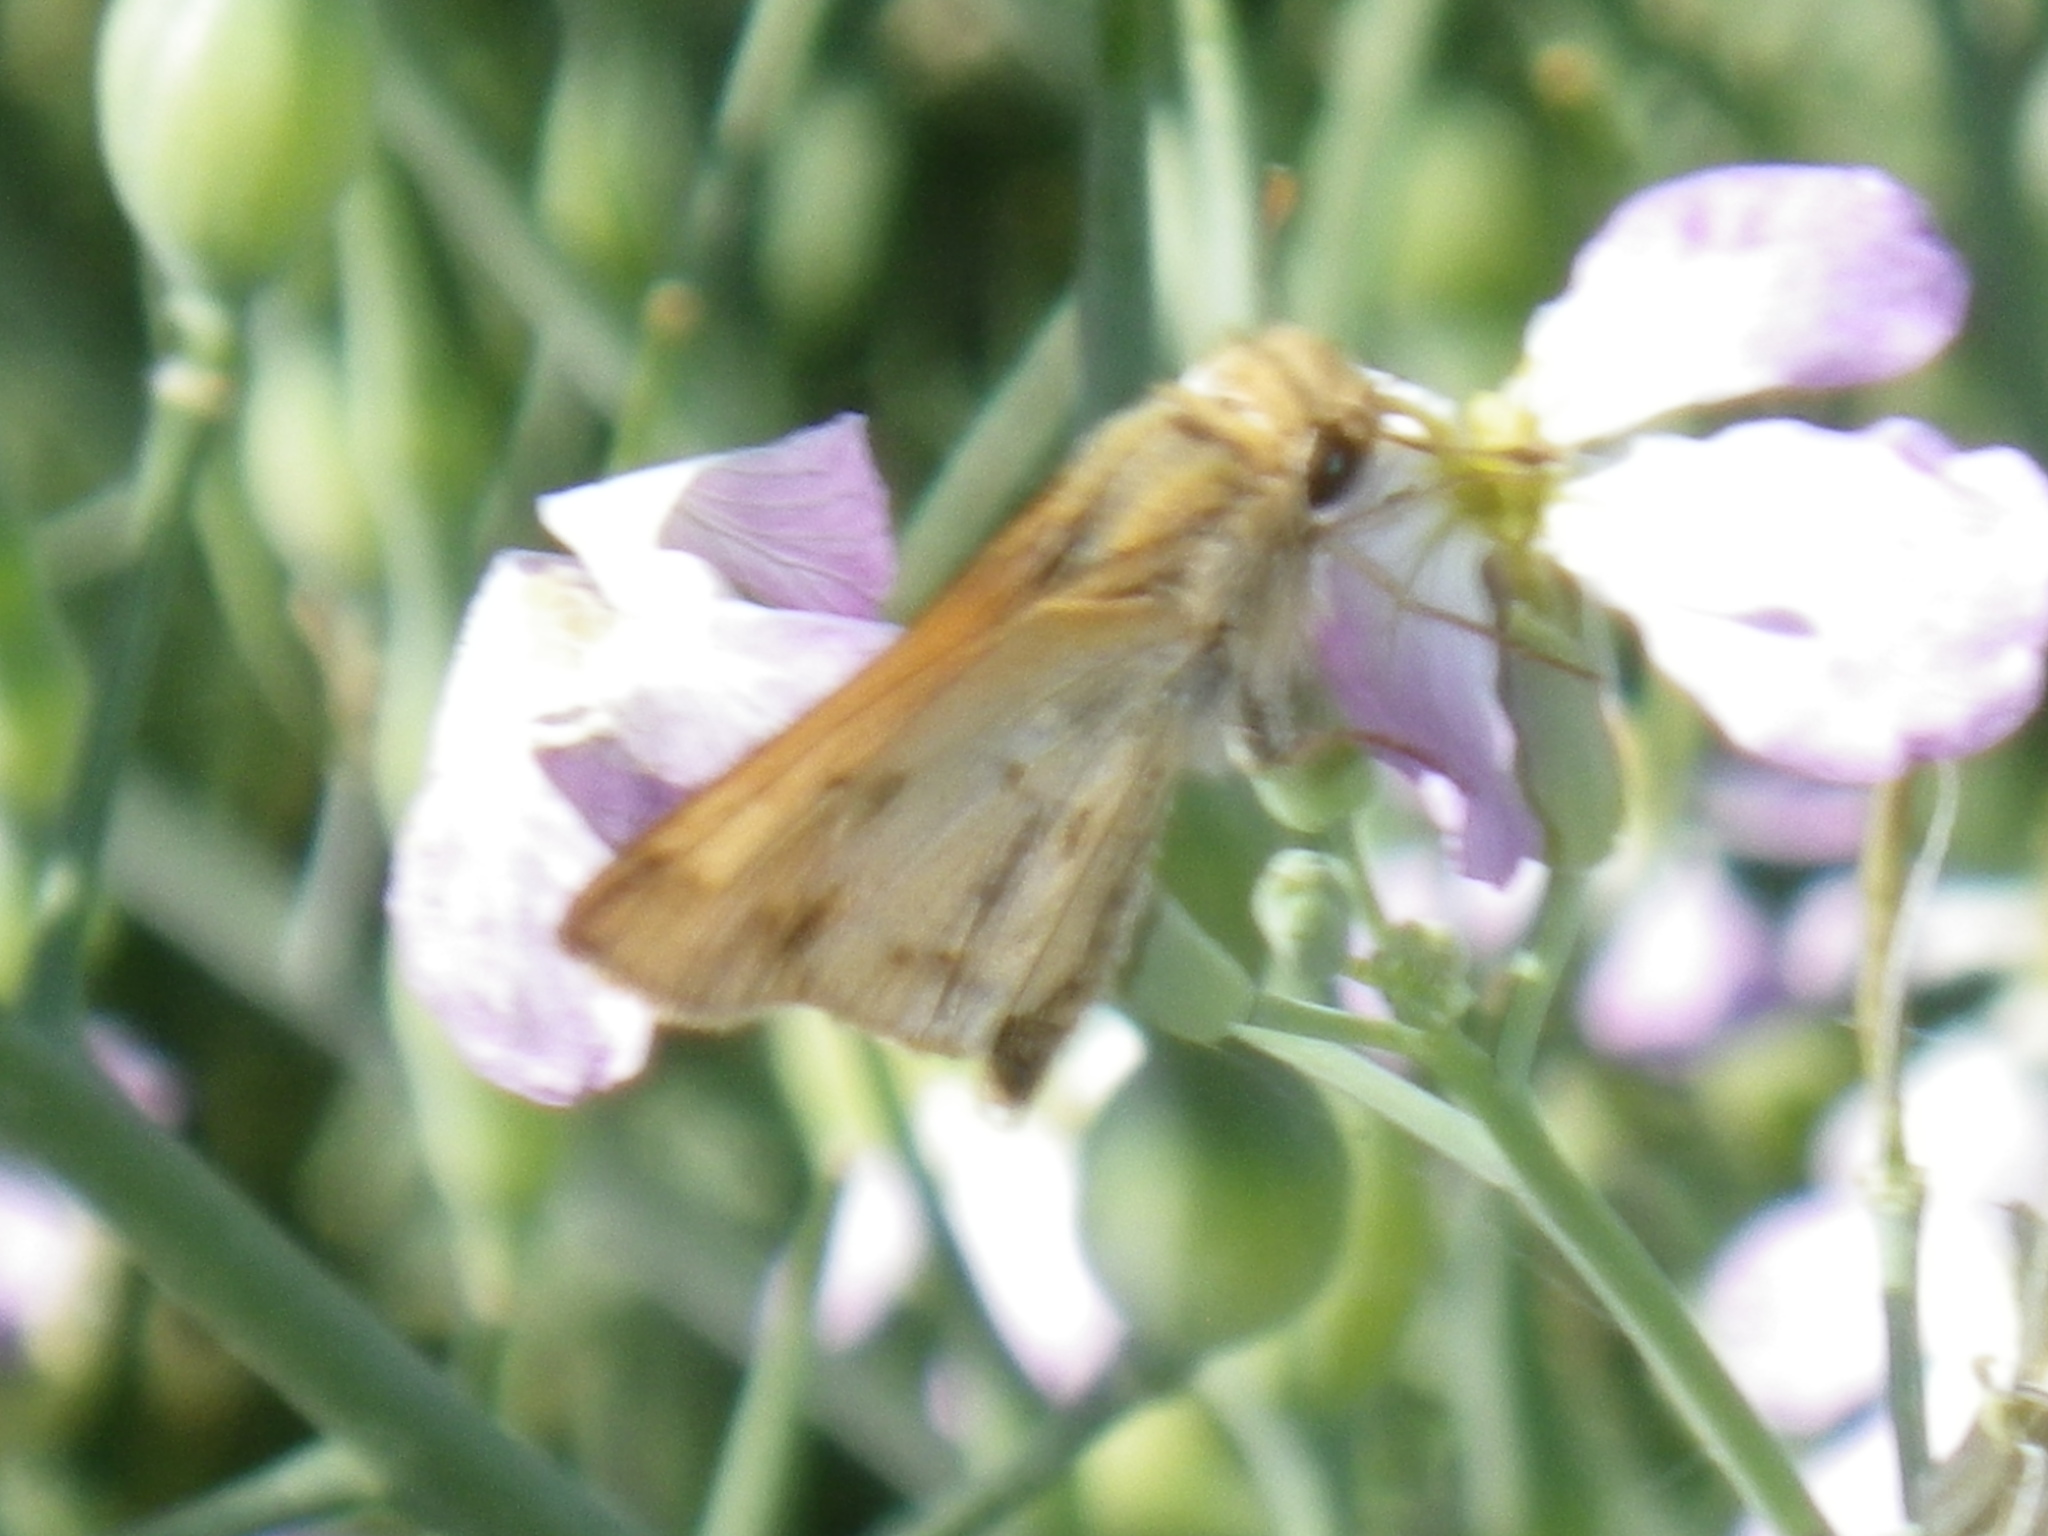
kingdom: Animalia
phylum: Arthropoda
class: Insecta
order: Lepidoptera
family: Hesperiidae
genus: Hylephila
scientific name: Hylephila phyleus
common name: Fiery skipper
